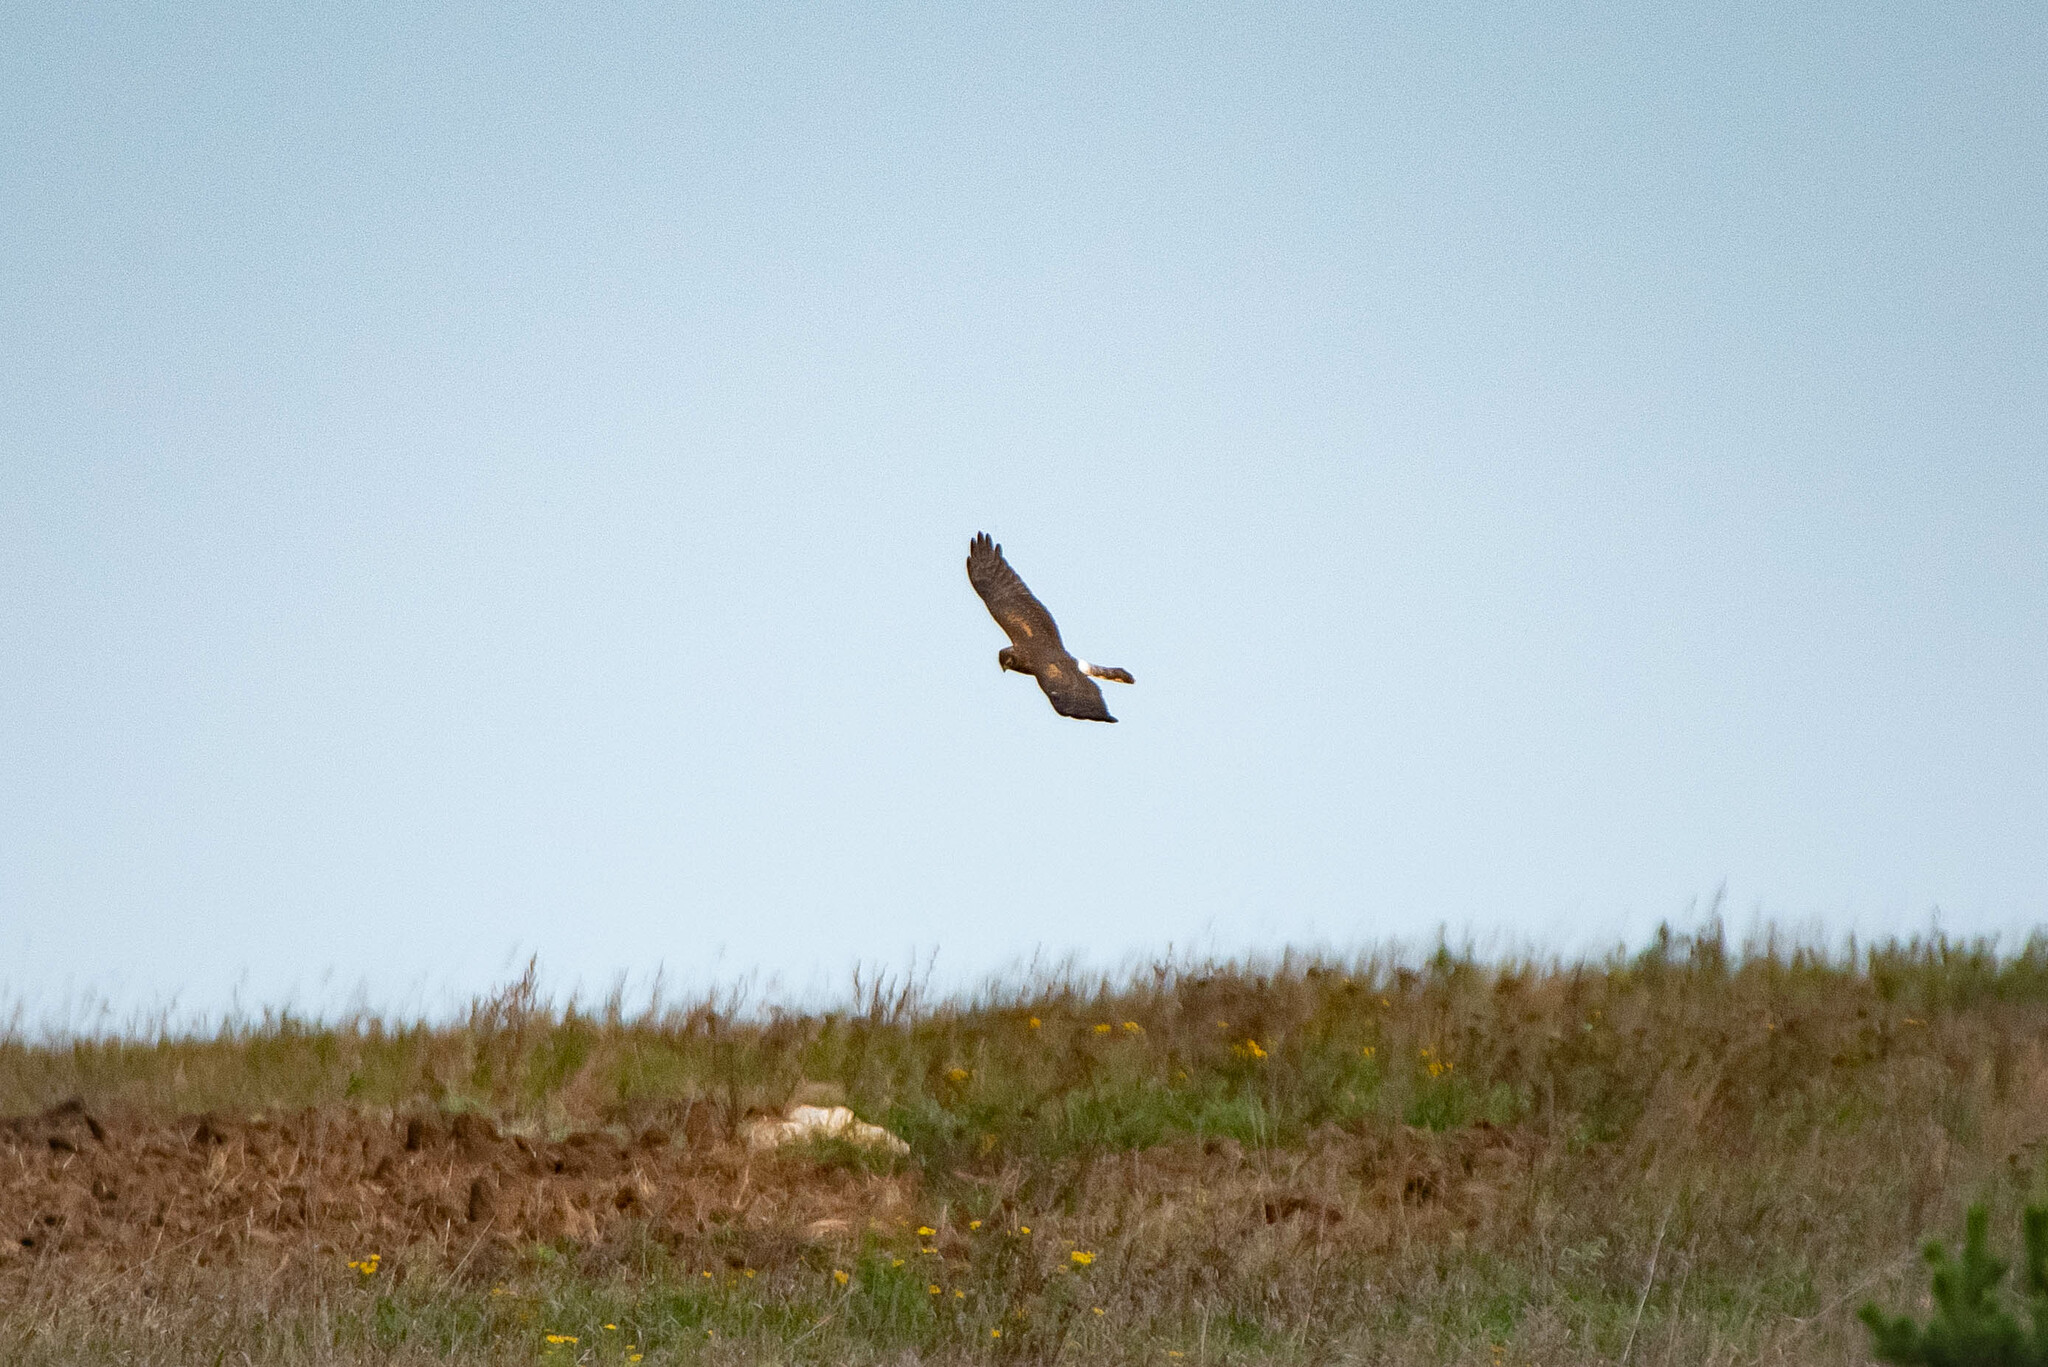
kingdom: Animalia
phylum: Chordata
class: Aves
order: Accipitriformes
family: Accipitridae
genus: Circus
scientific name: Circus cyaneus
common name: Hen harrier
